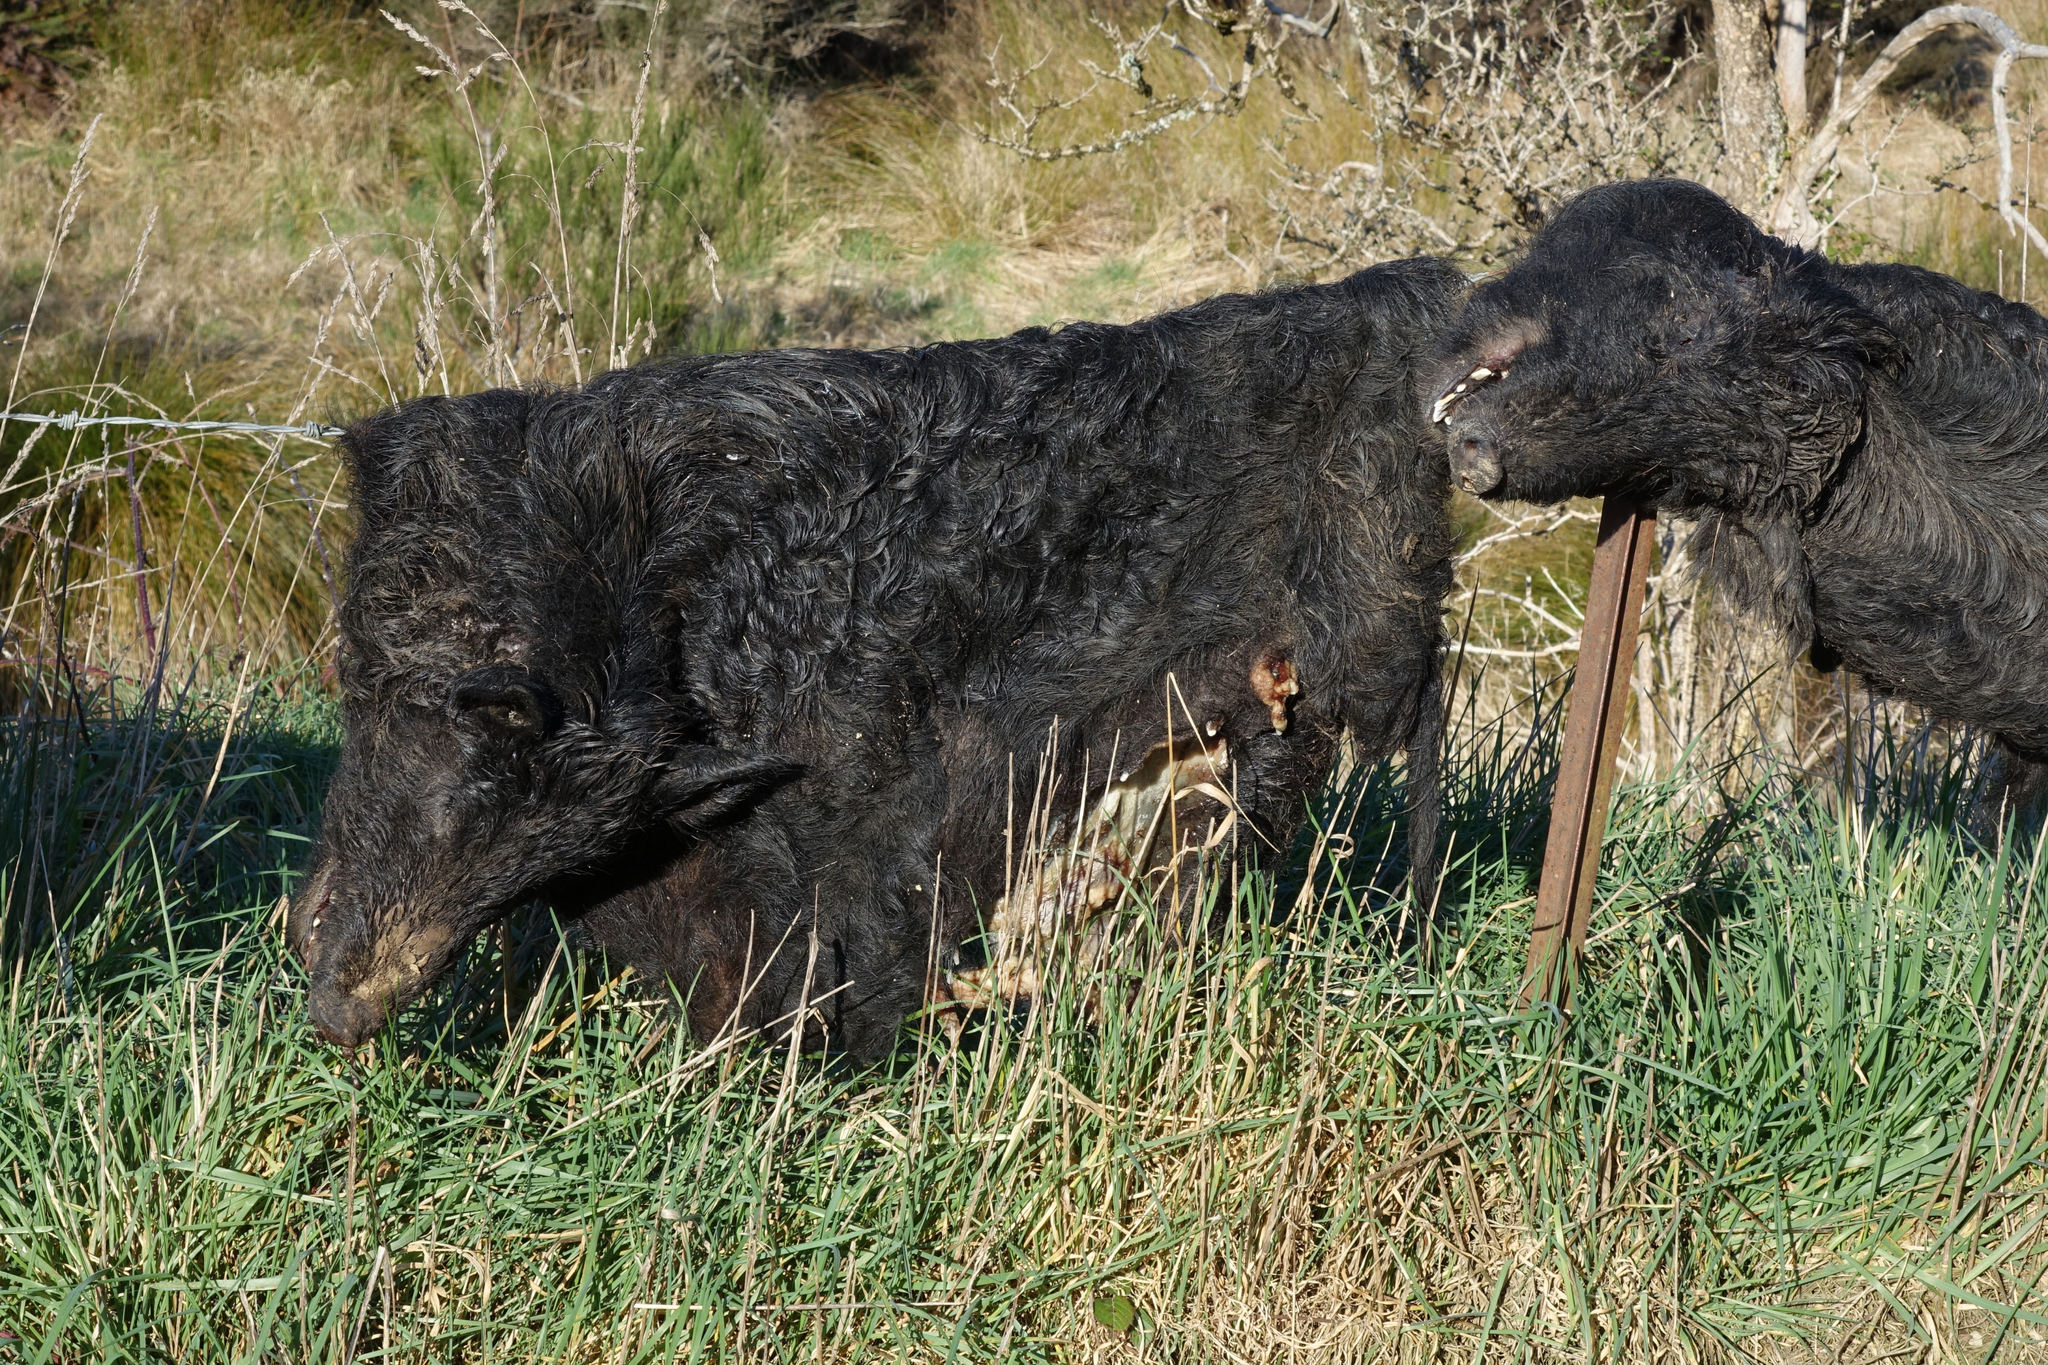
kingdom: Animalia
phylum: Chordata
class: Mammalia
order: Artiodactyla
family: Suidae
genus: Sus
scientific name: Sus scrofa
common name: Wild boar
